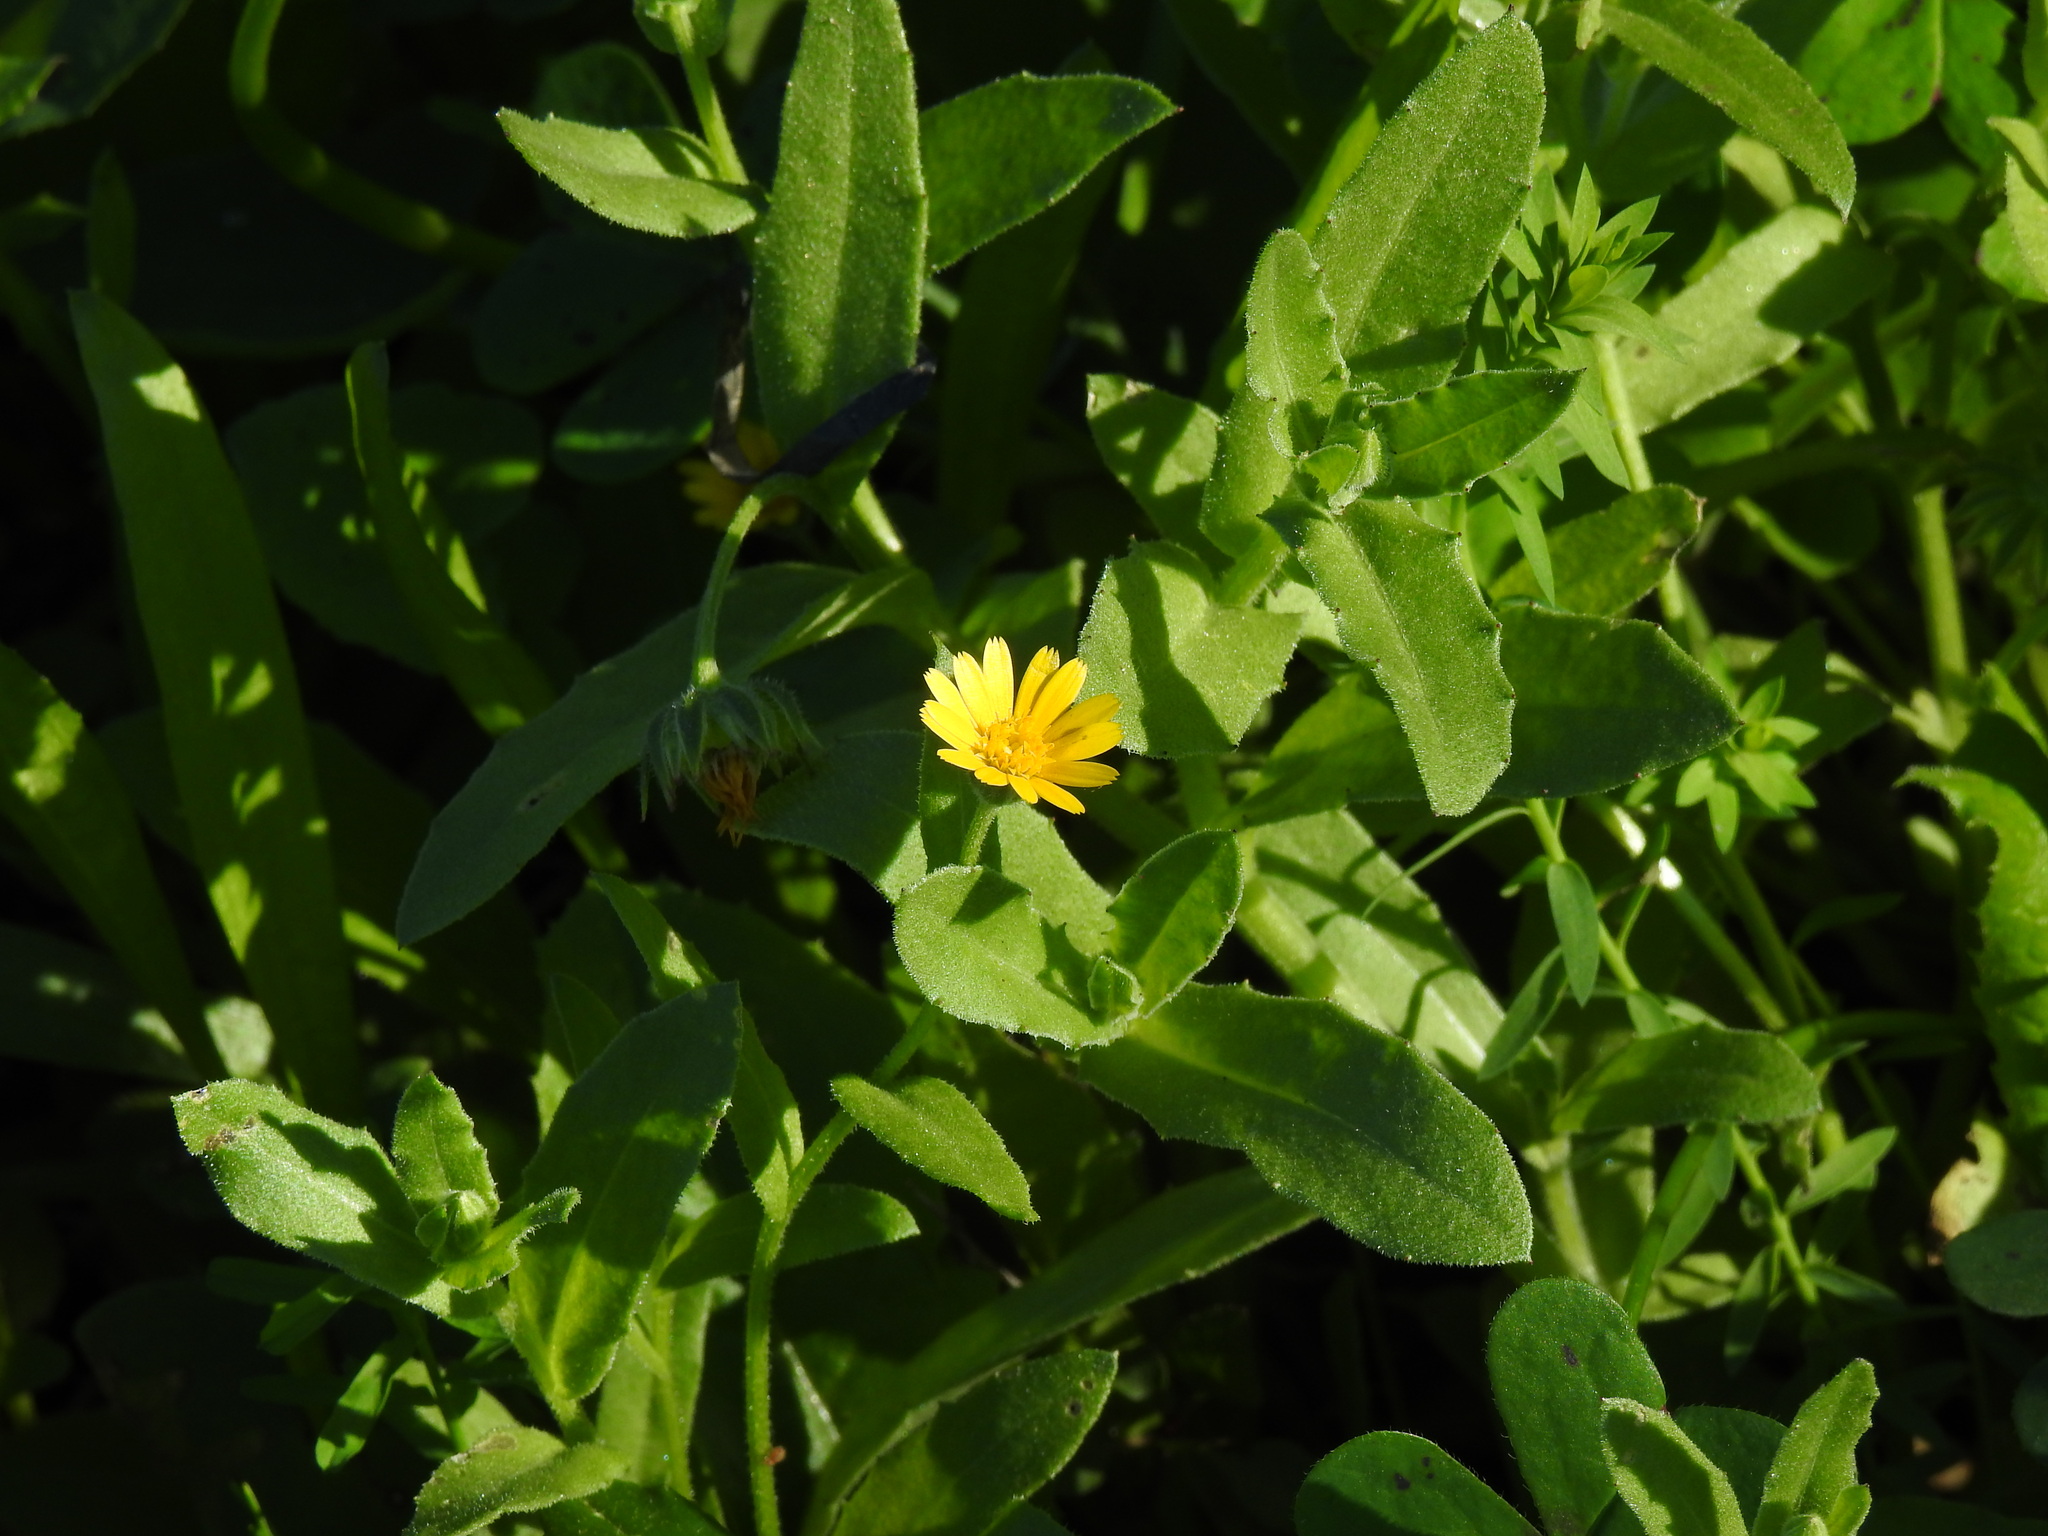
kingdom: Plantae
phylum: Tracheophyta
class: Magnoliopsida
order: Asterales
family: Asteraceae
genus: Calendula
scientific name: Calendula arvensis
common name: Field marigold
